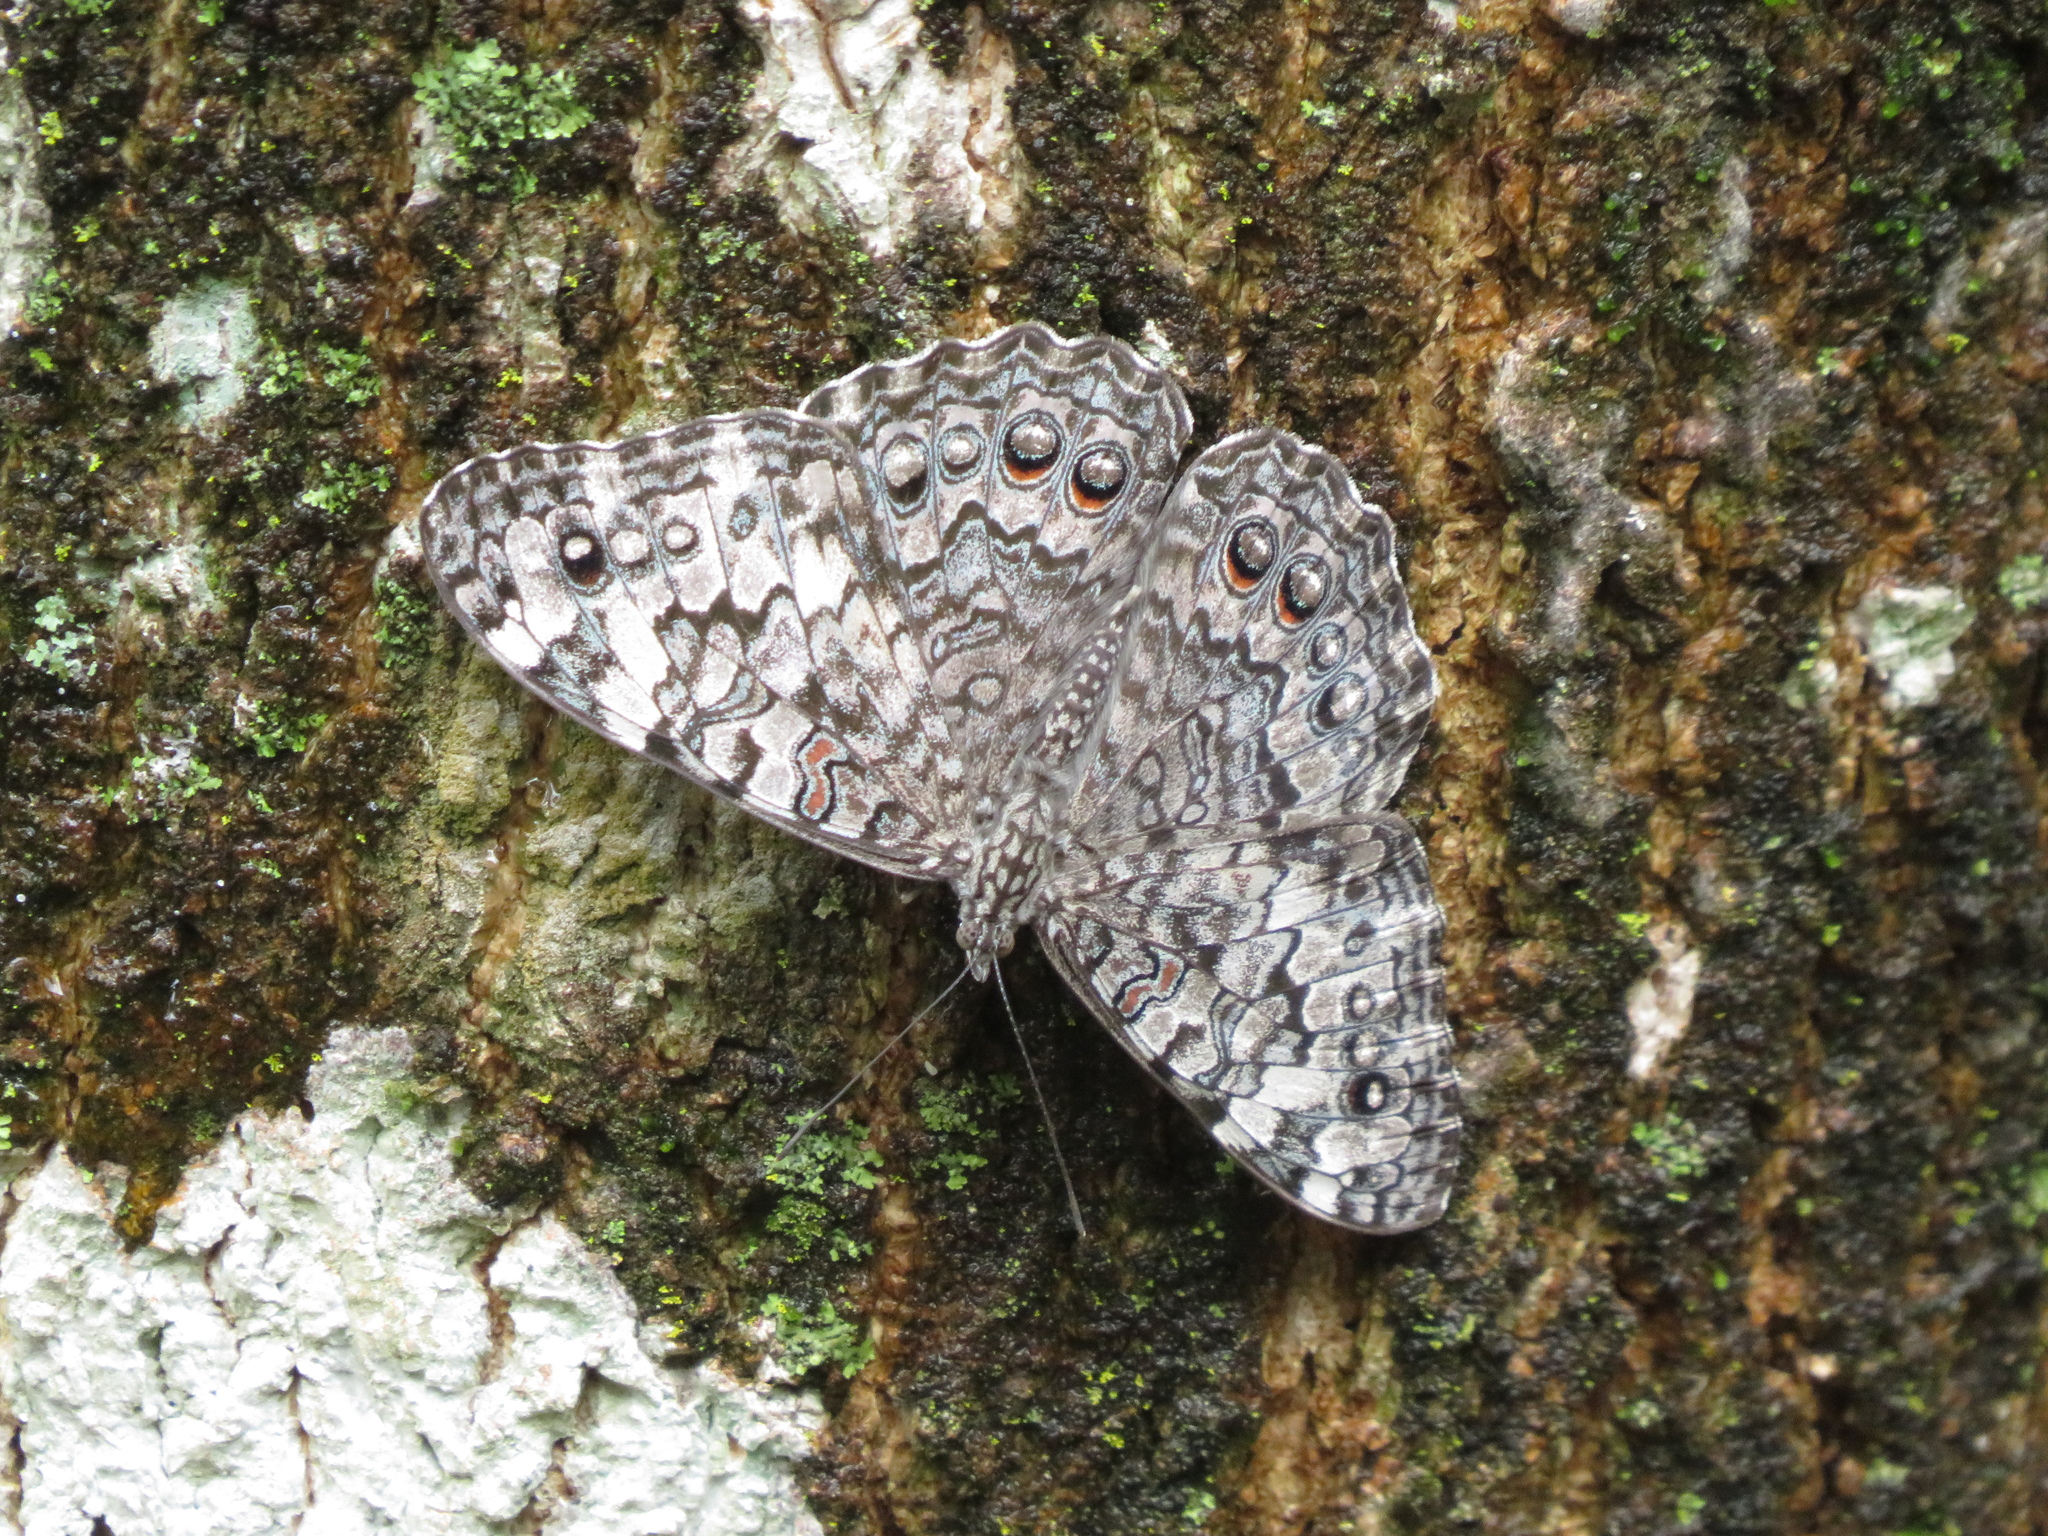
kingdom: Animalia
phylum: Arthropoda
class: Insecta
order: Lepidoptera
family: Nymphalidae
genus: Hamadryas
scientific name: Hamadryas februa
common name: Gray cracker
